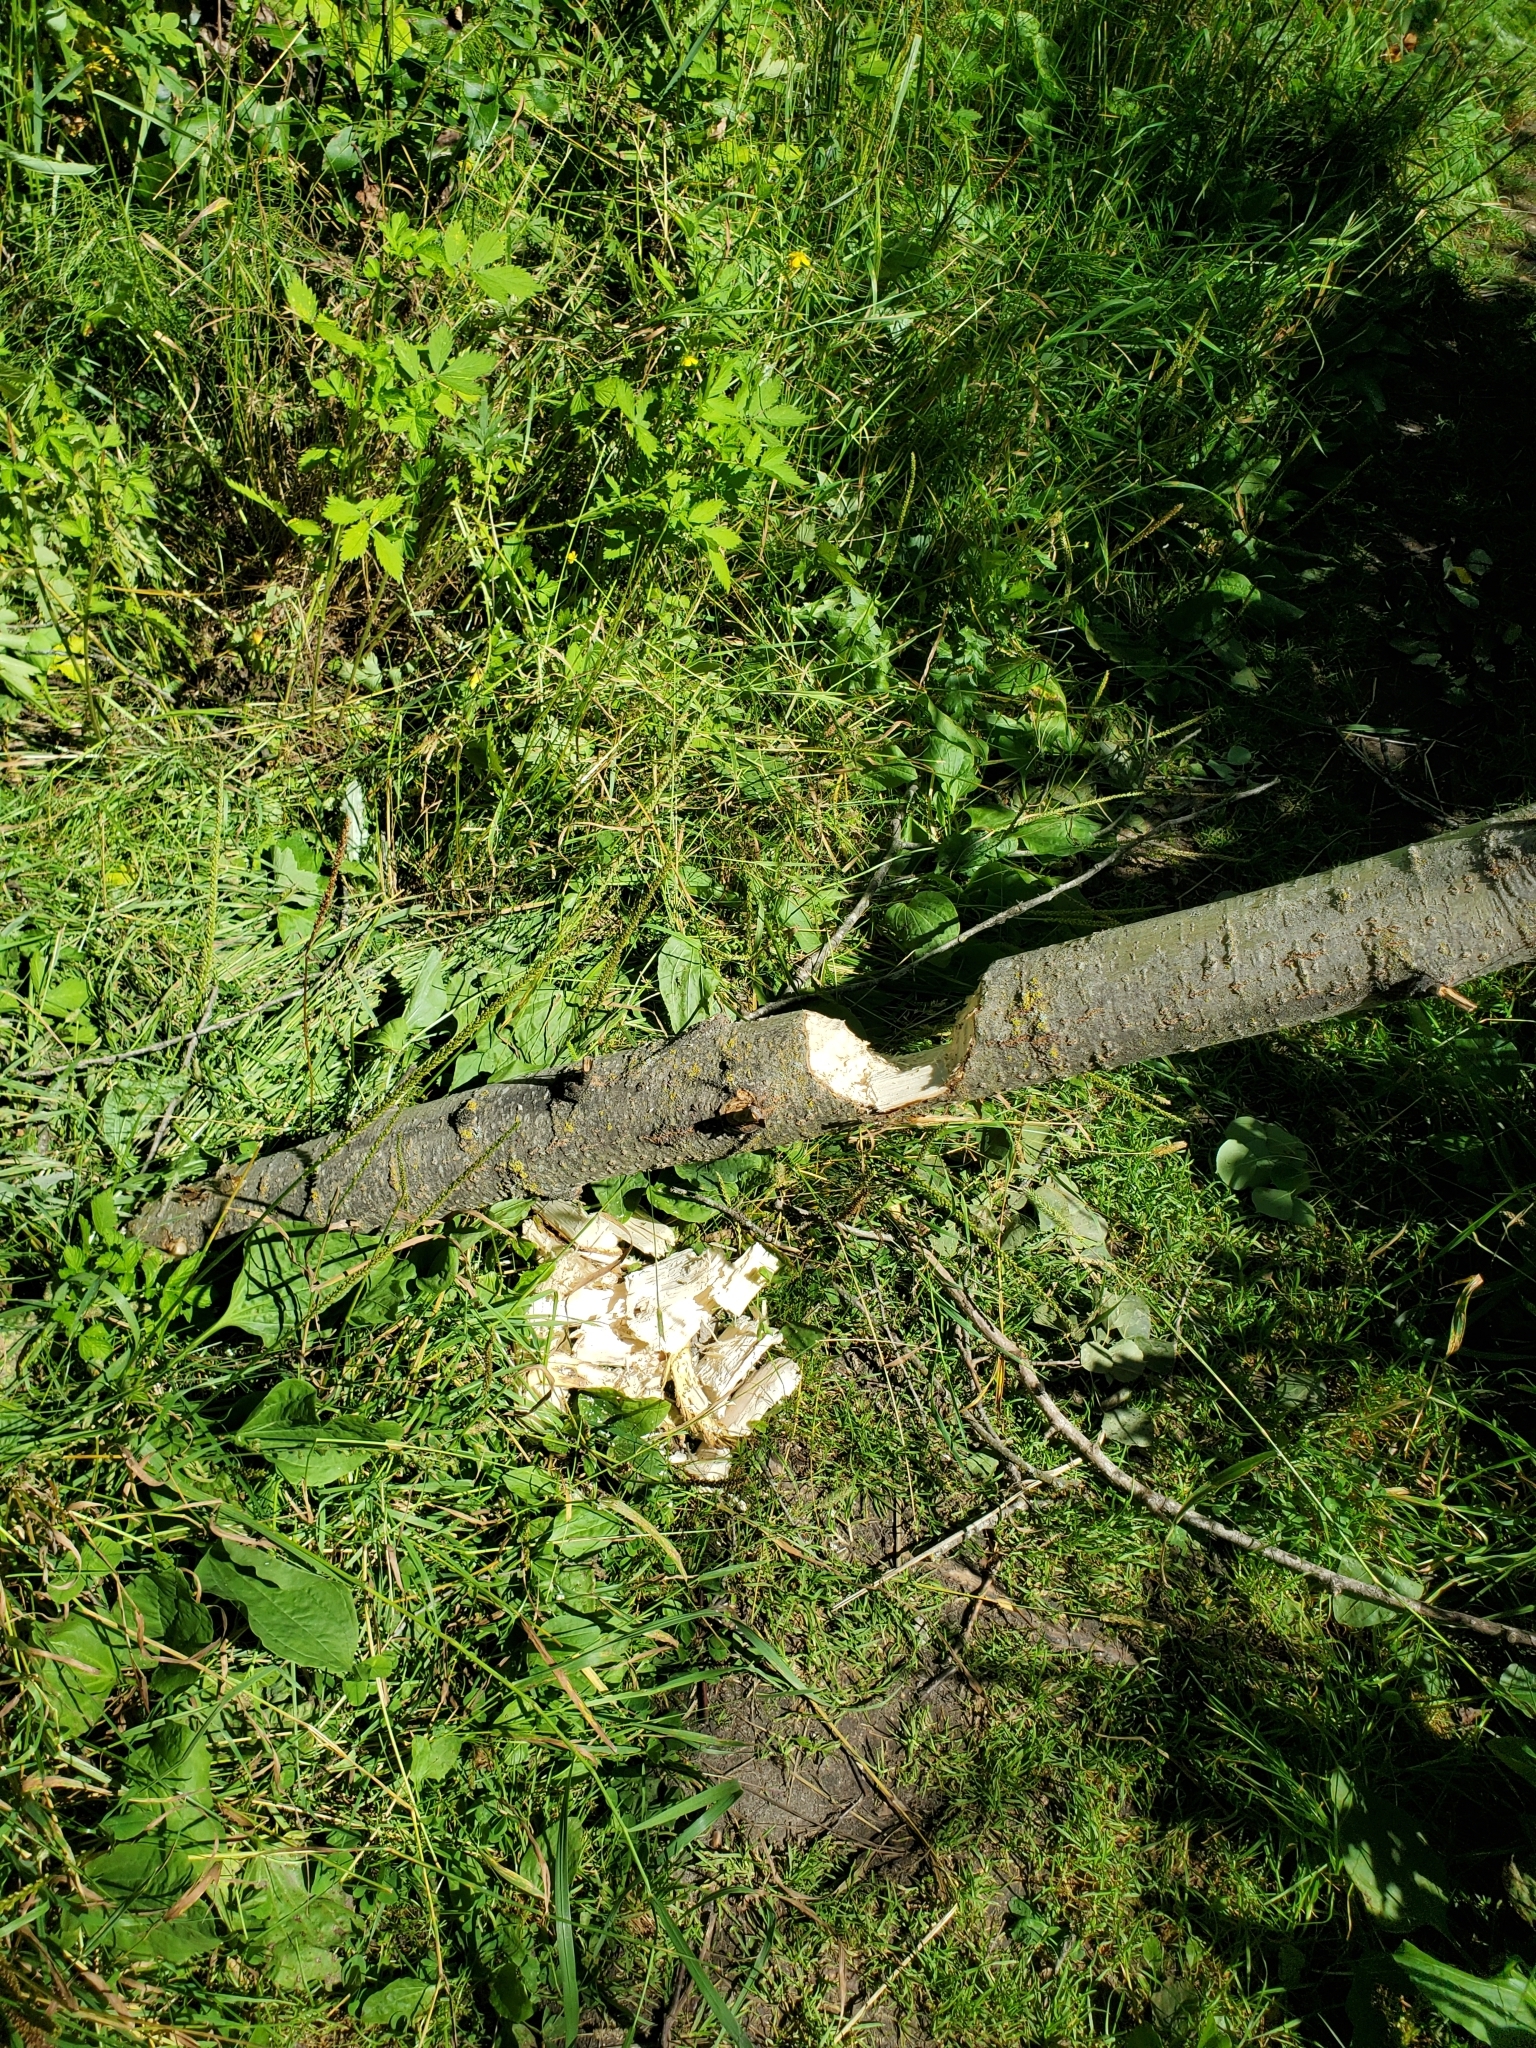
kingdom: Animalia
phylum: Chordata
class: Mammalia
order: Rodentia
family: Castoridae
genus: Castor
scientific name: Castor canadensis
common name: American beaver
